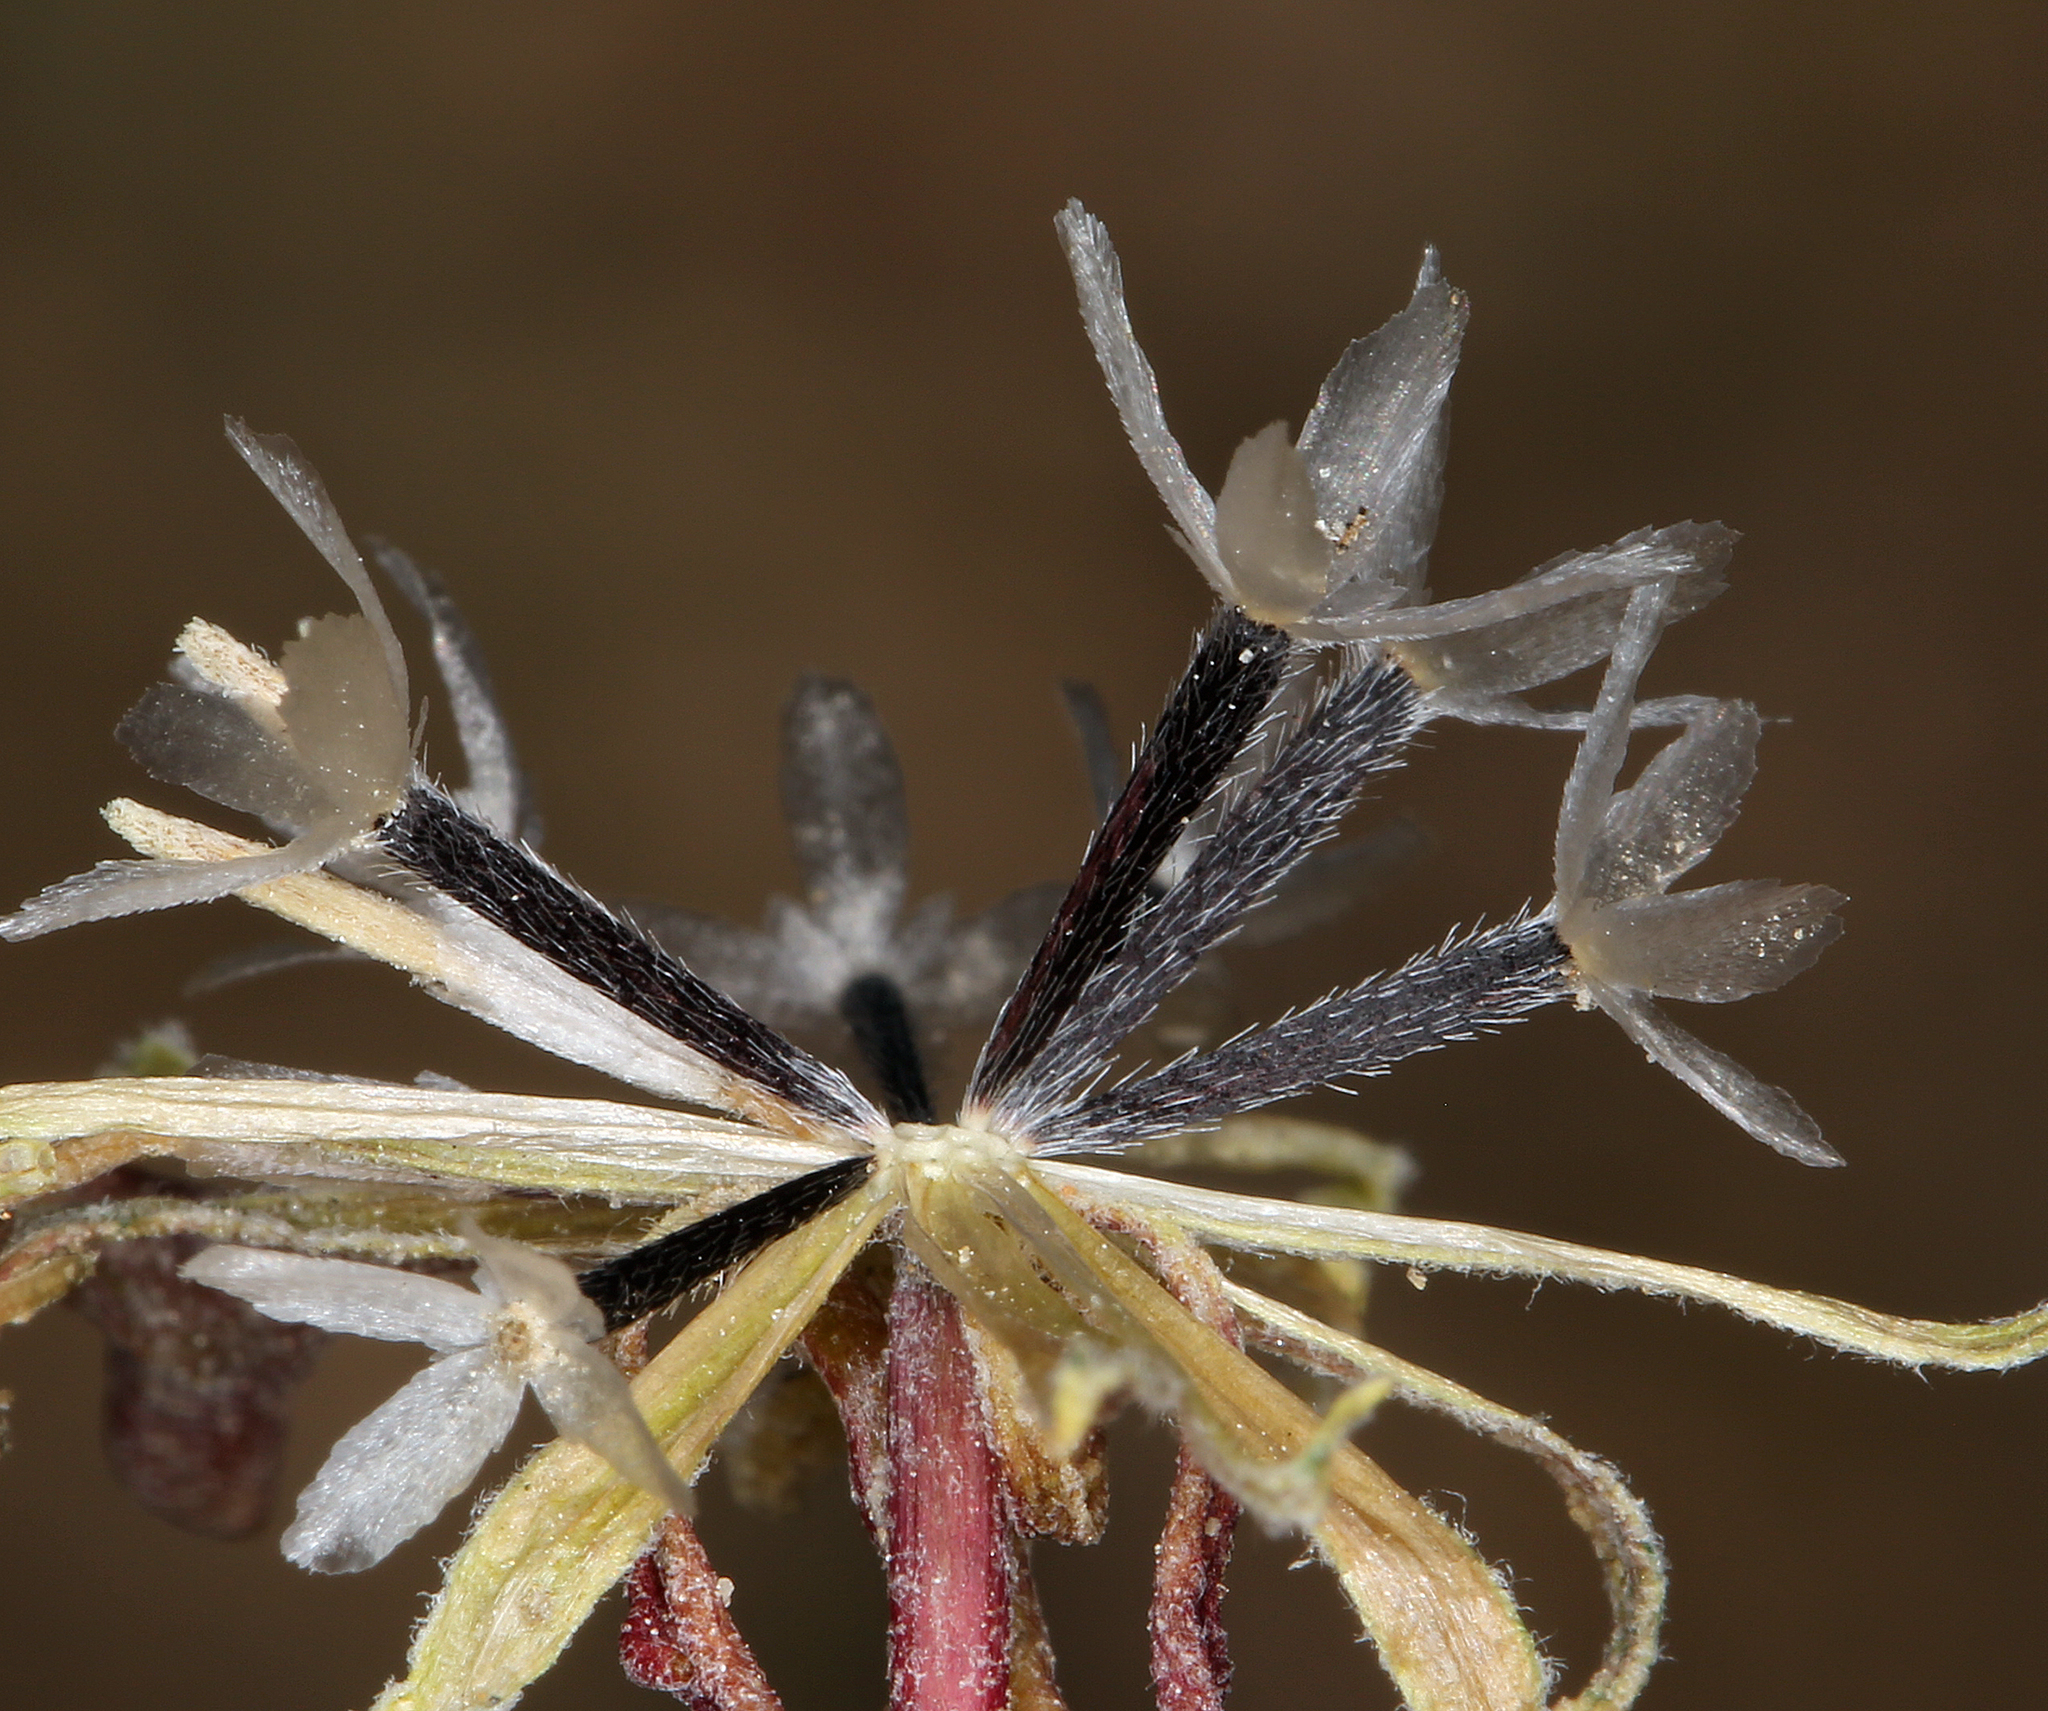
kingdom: Plantae
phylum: Tracheophyta
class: Magnoliopsida
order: Asterales
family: Asteraceae
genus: Chaenactis
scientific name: Chaenactis macrantha
